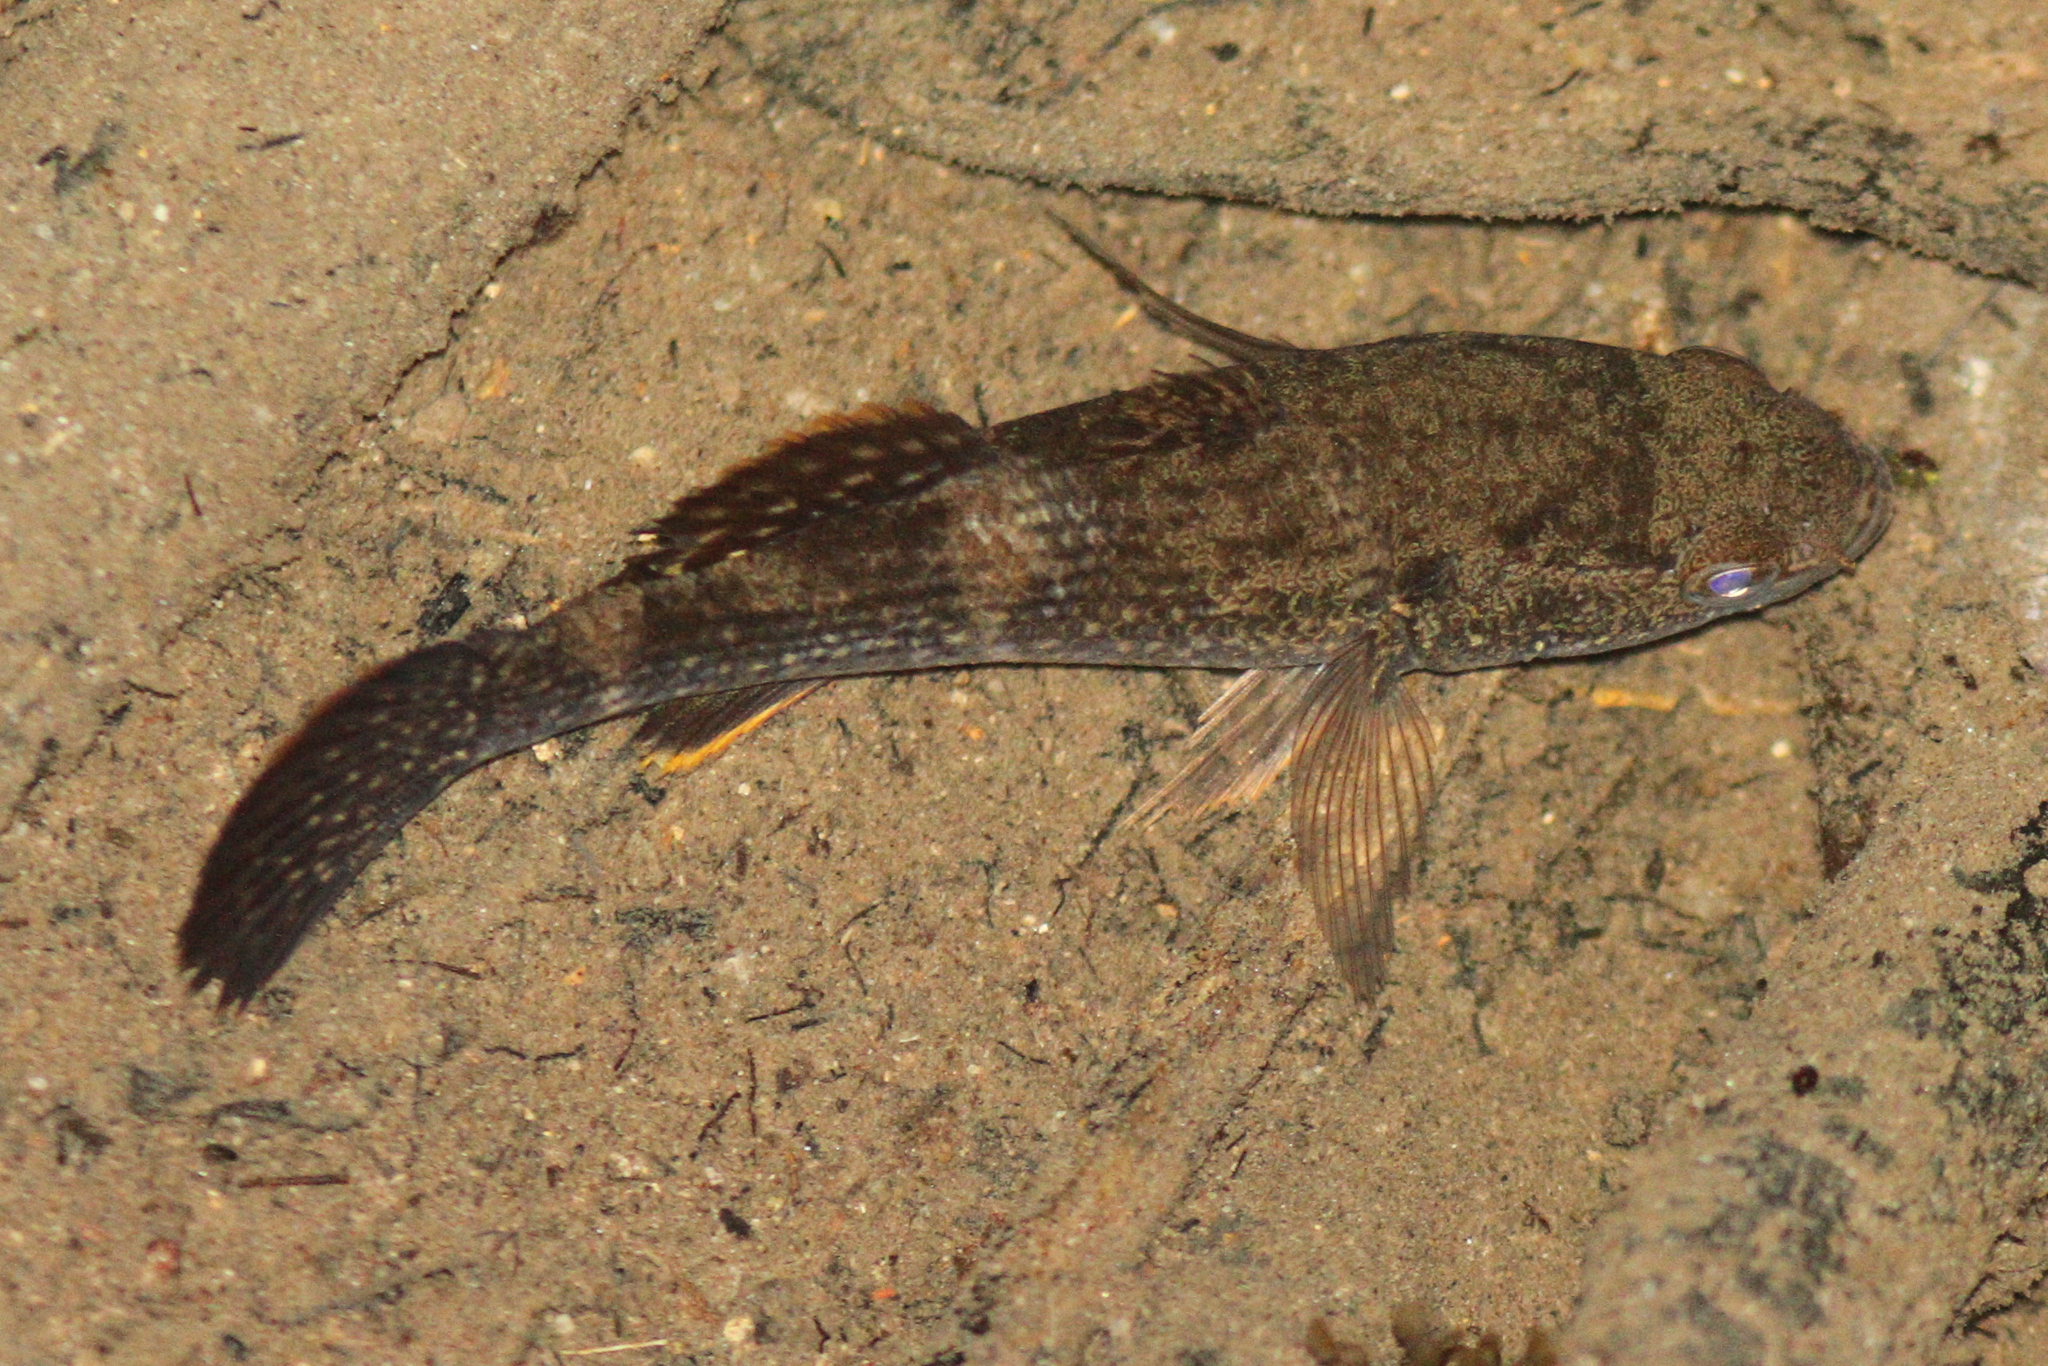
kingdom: Animalia
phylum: Chordata
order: Perciformes
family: Eleotridae
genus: Ophiocara
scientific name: Ophiocara porocephala
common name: Spangled gudgeon
